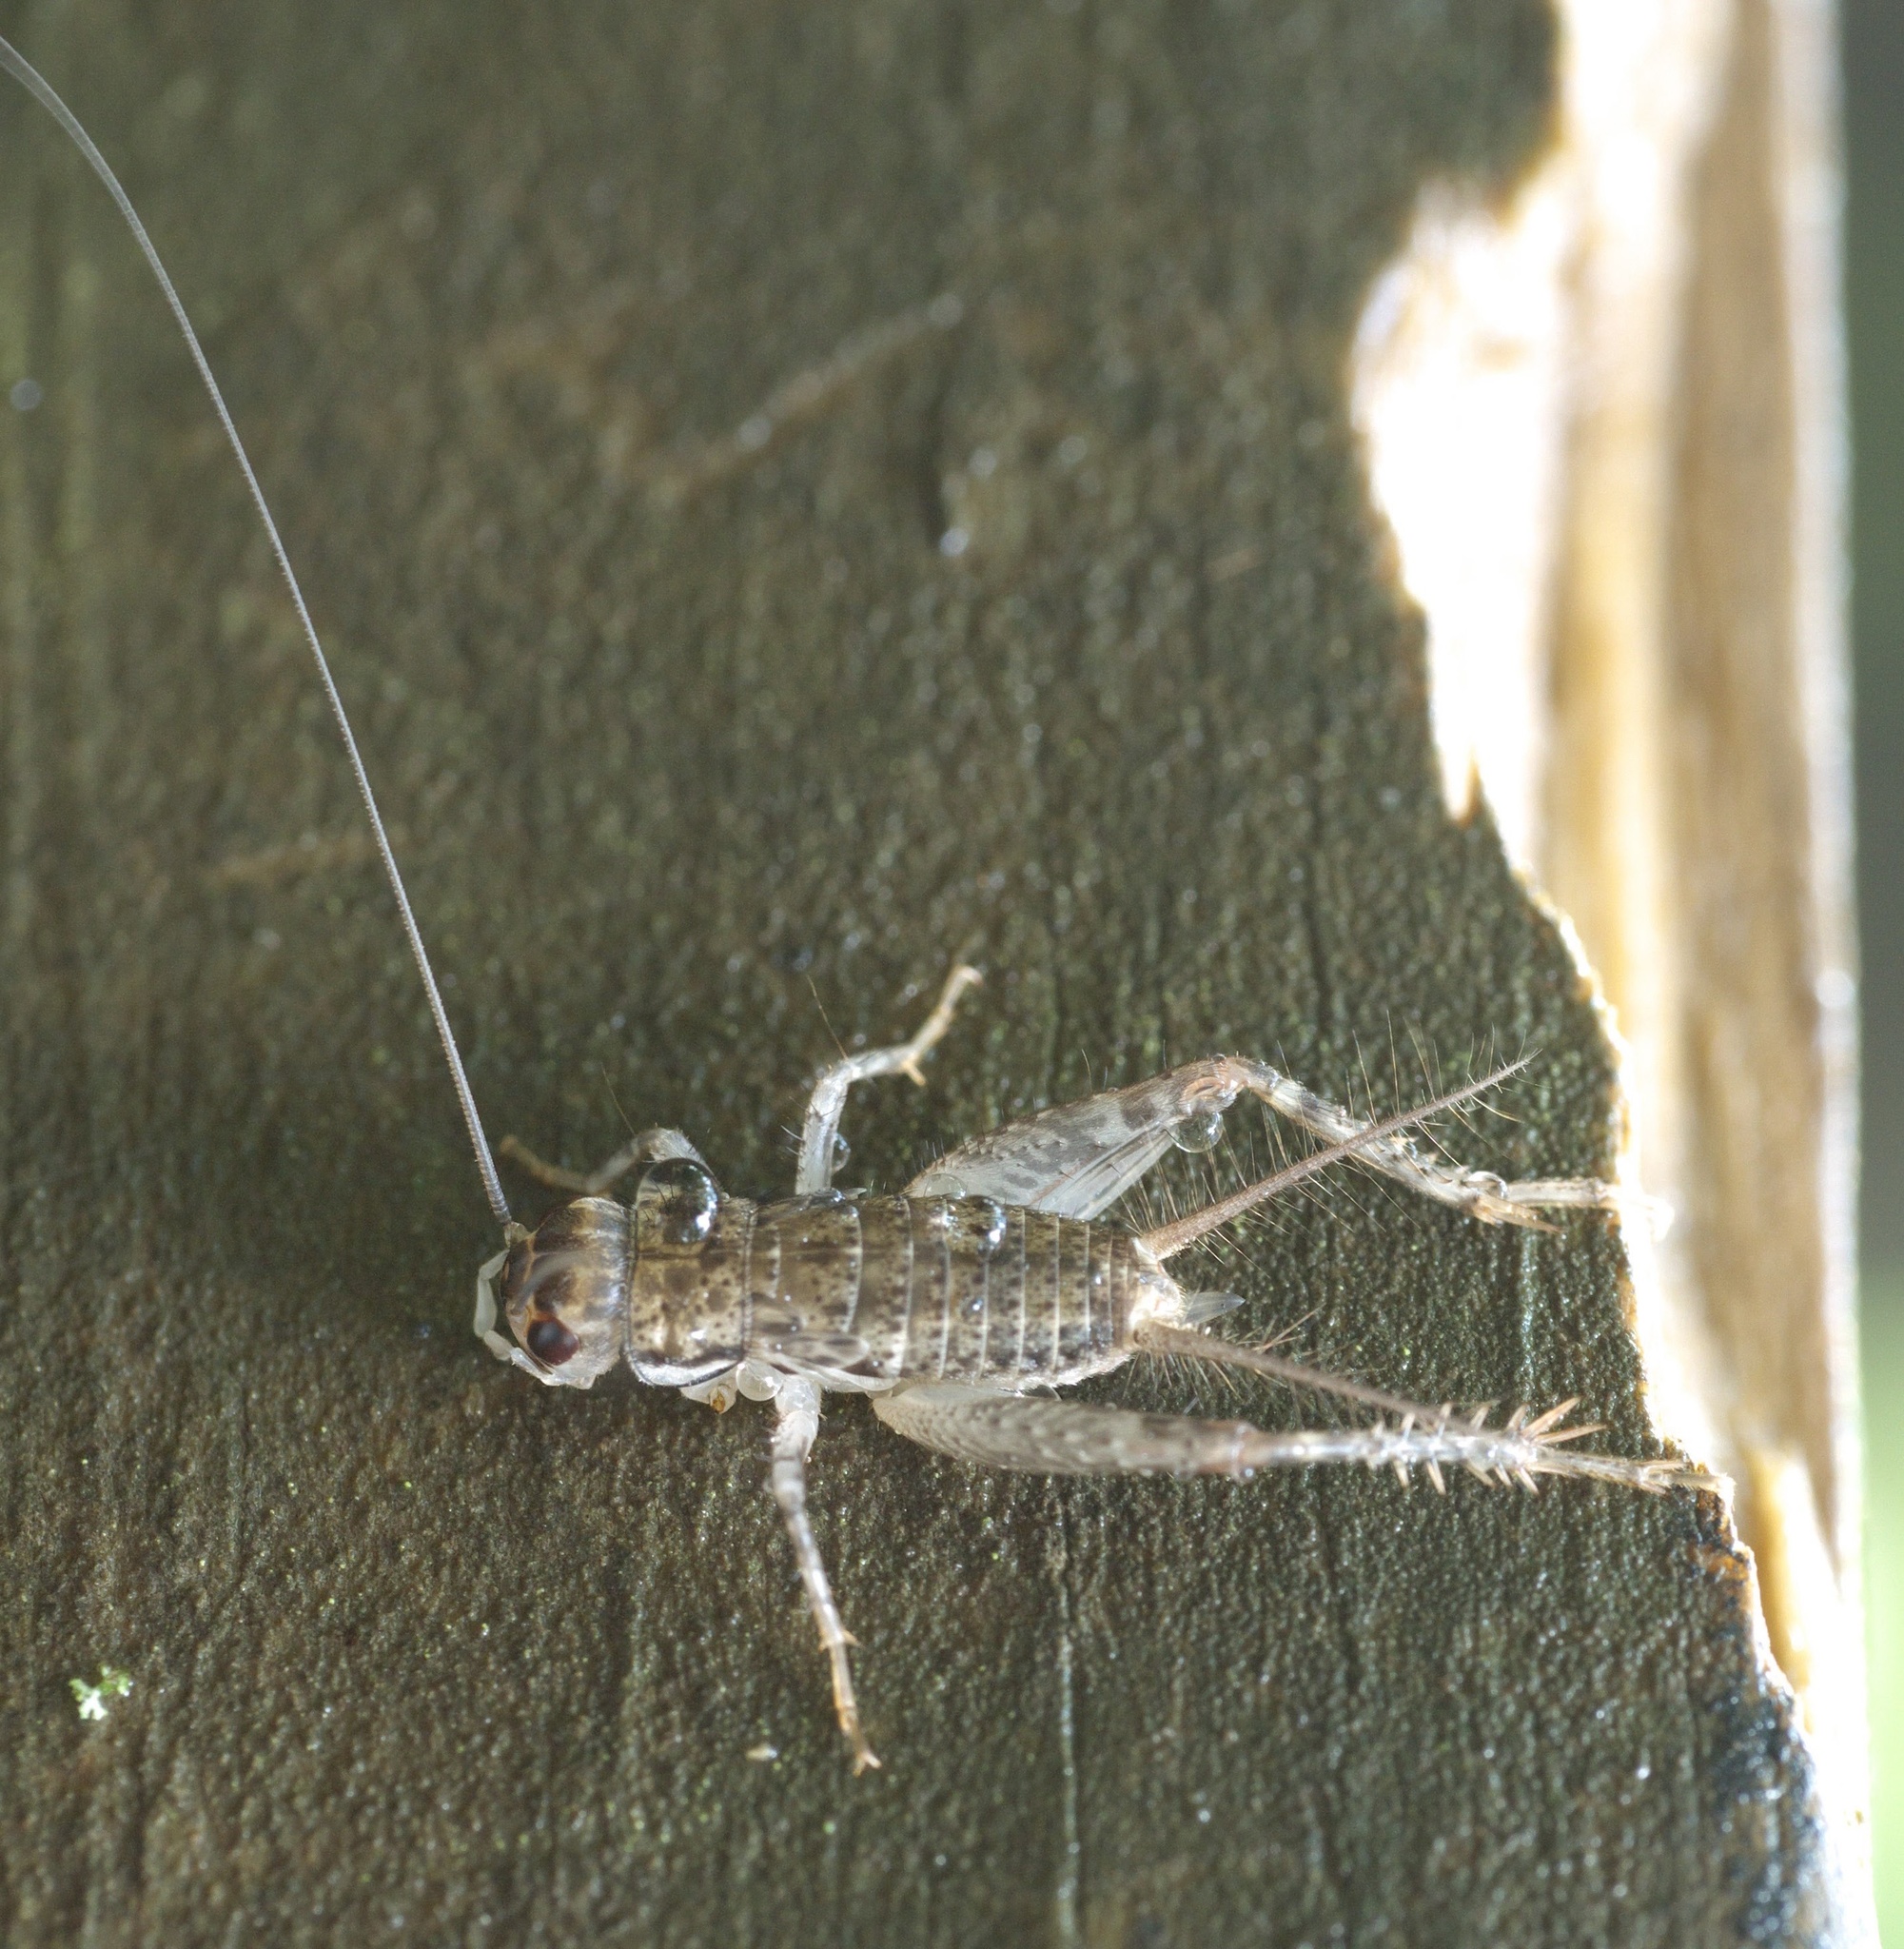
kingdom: Animalia
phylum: Arthropoda
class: Insecta
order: Orthoptera
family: Gryllidae
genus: Velarifictorus
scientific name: Velarifictorus micado
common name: Japanese burrowing cricket
